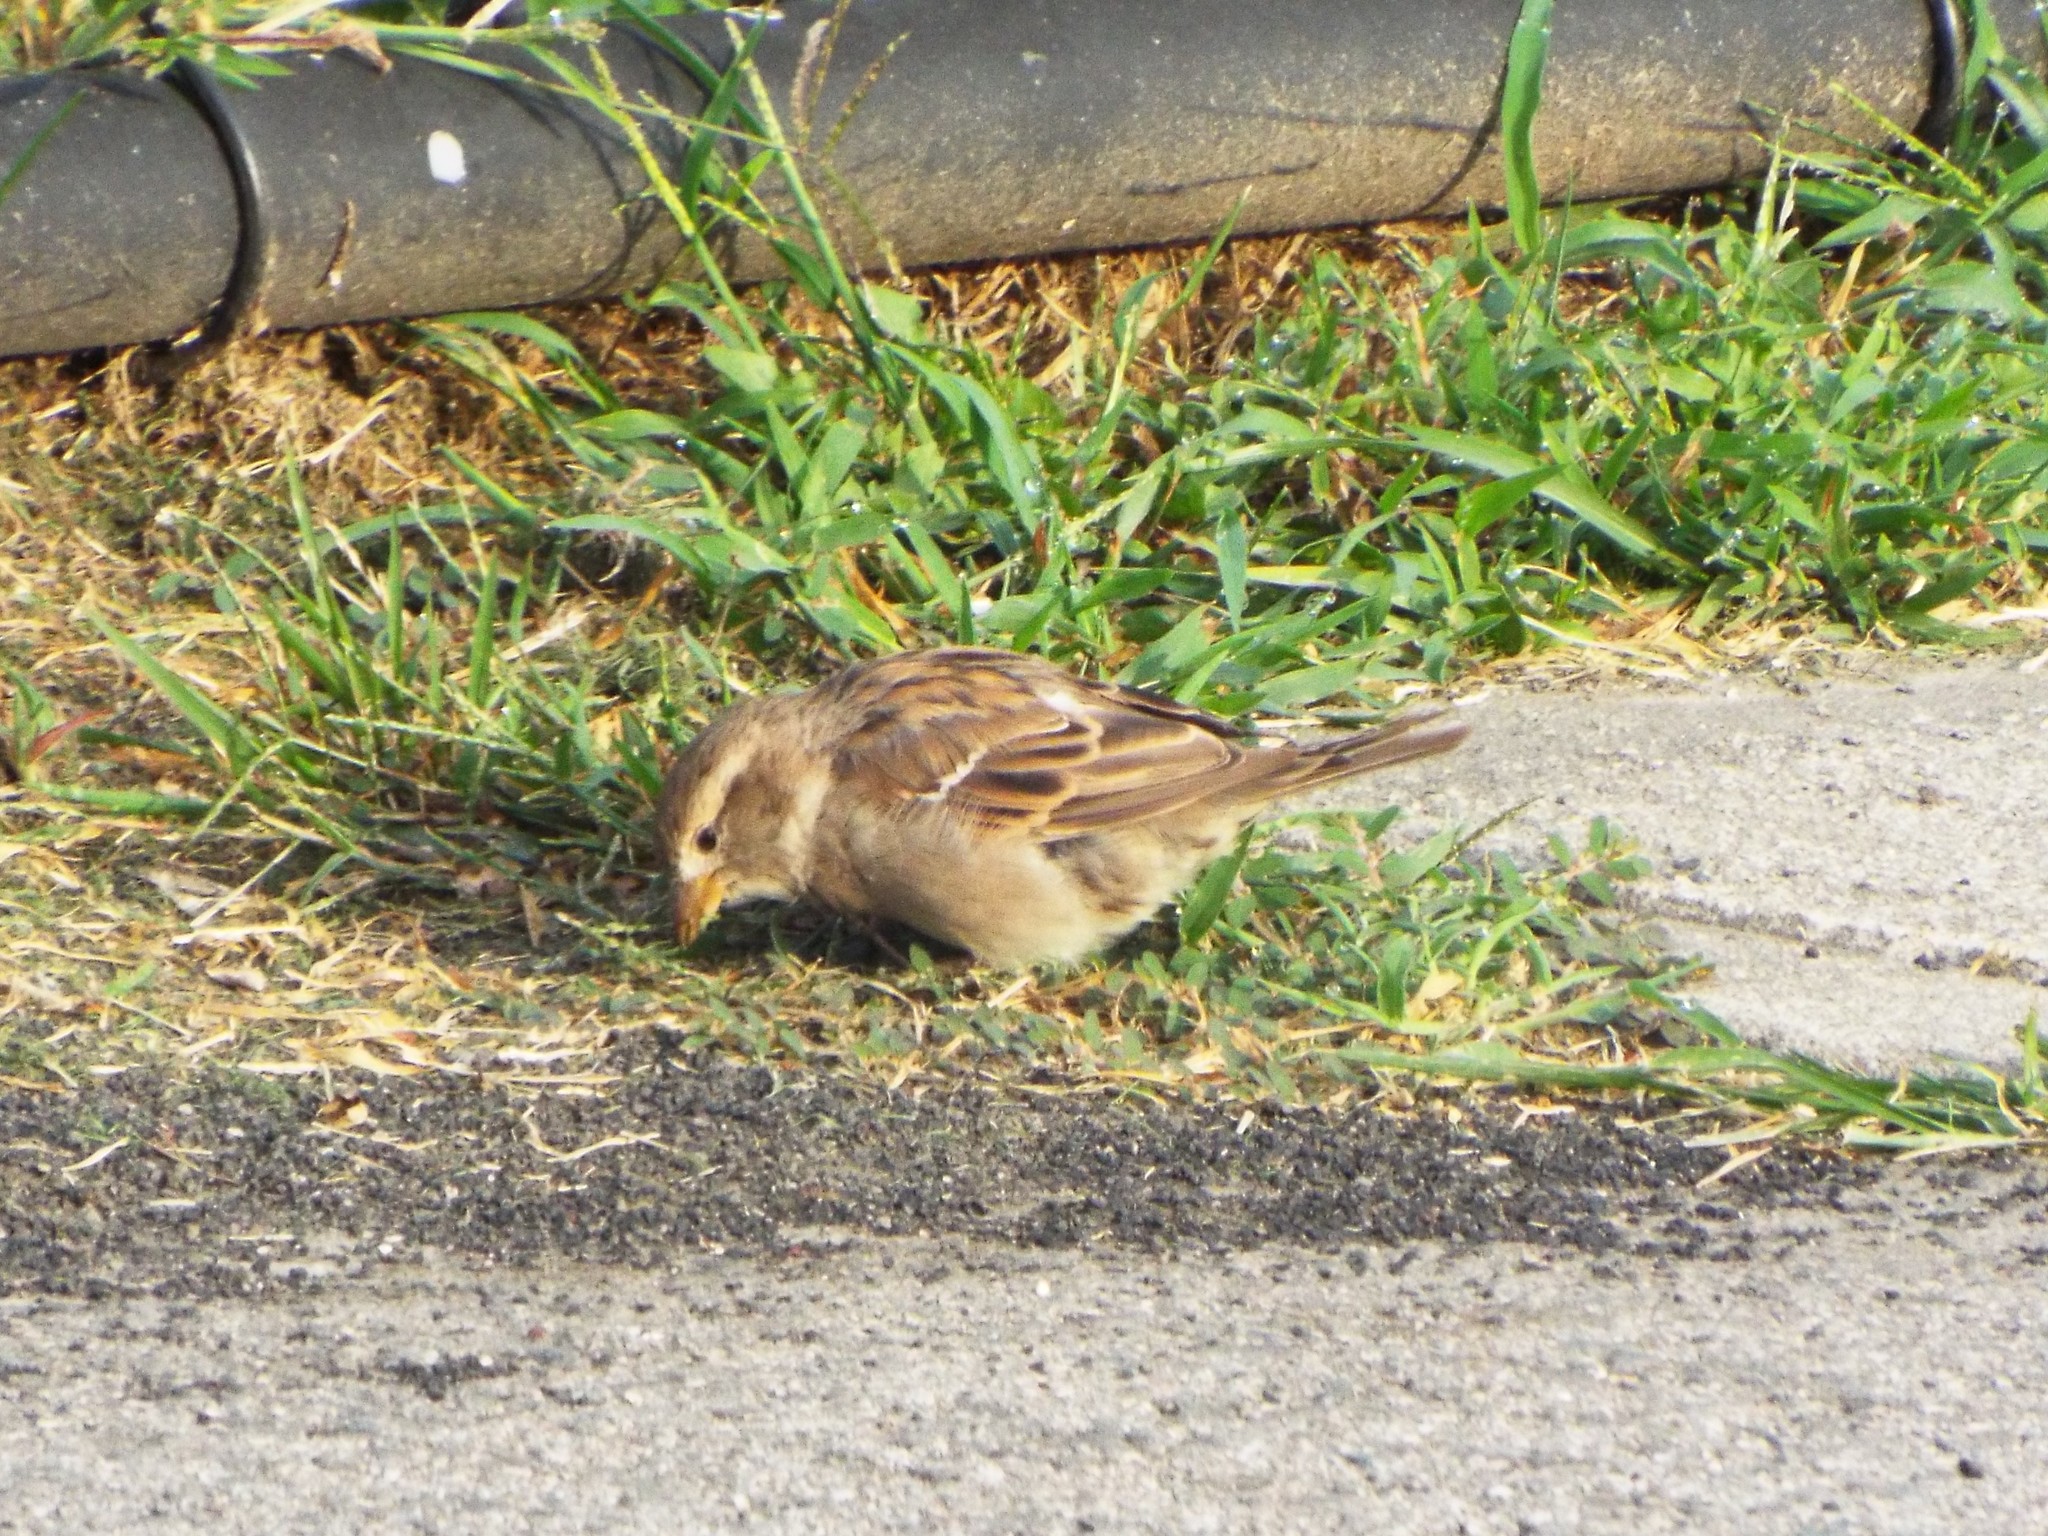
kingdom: Animalia
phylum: Chordata
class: Aves
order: Passeriformes
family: Passeridae
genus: Passer
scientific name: Passer domesticus
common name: House sparrow
